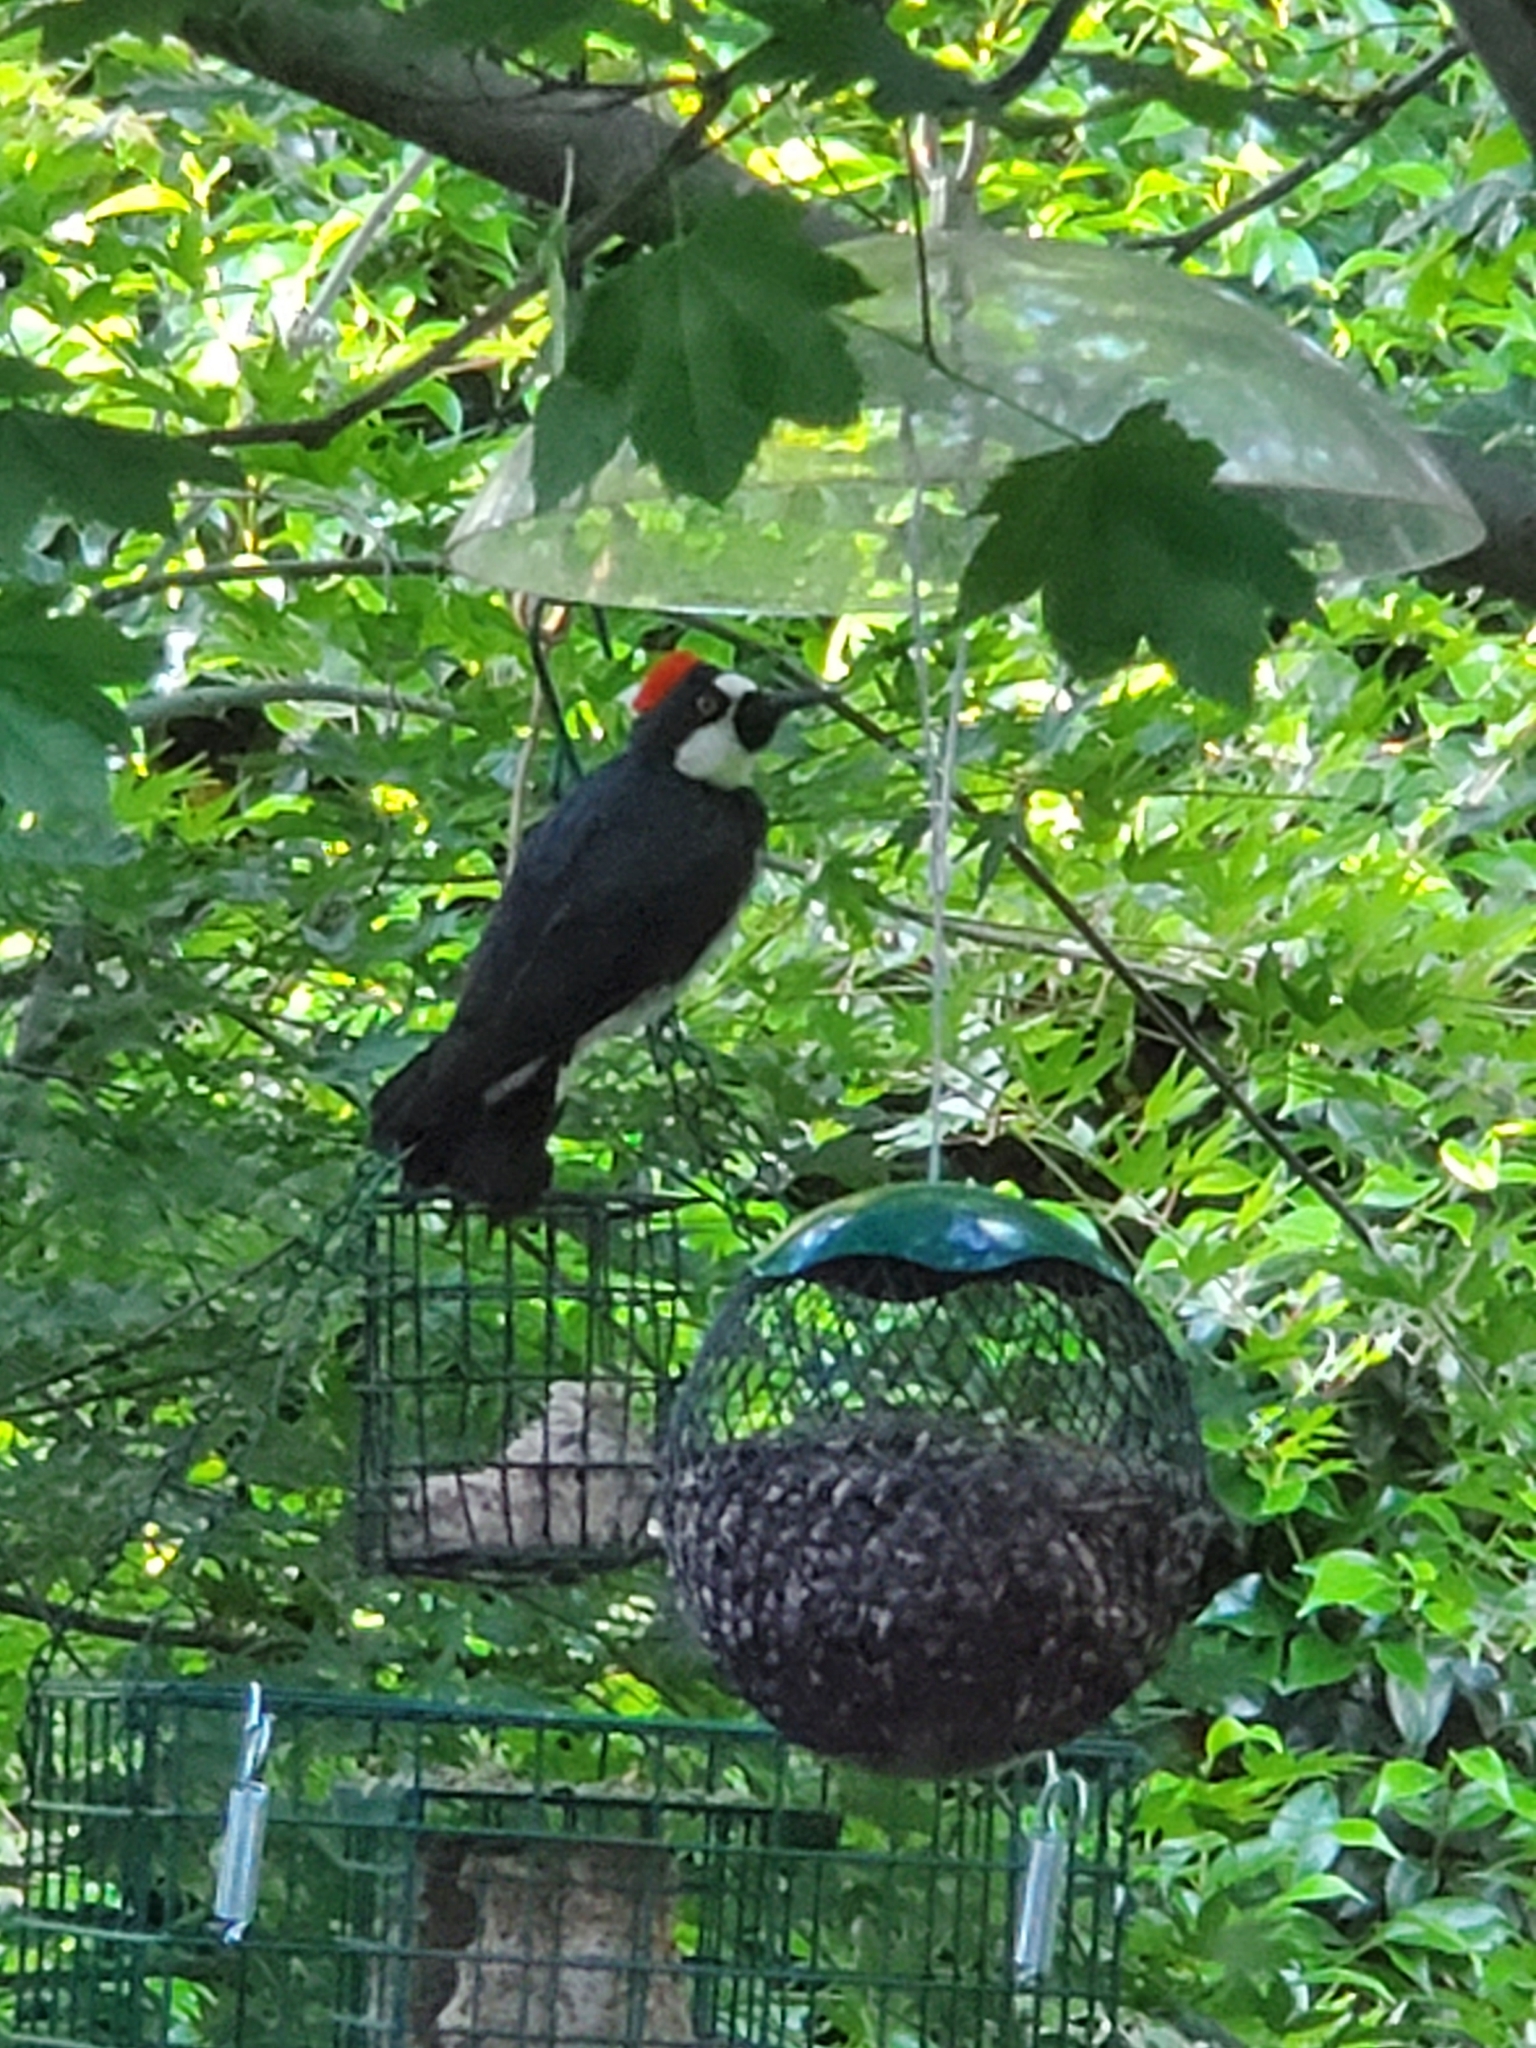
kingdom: Animalia
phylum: Chordata
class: Aves
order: Piciformes
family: Picidae
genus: Melanerpes
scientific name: Melanerpes formicivorus
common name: Acorn woodpecker
